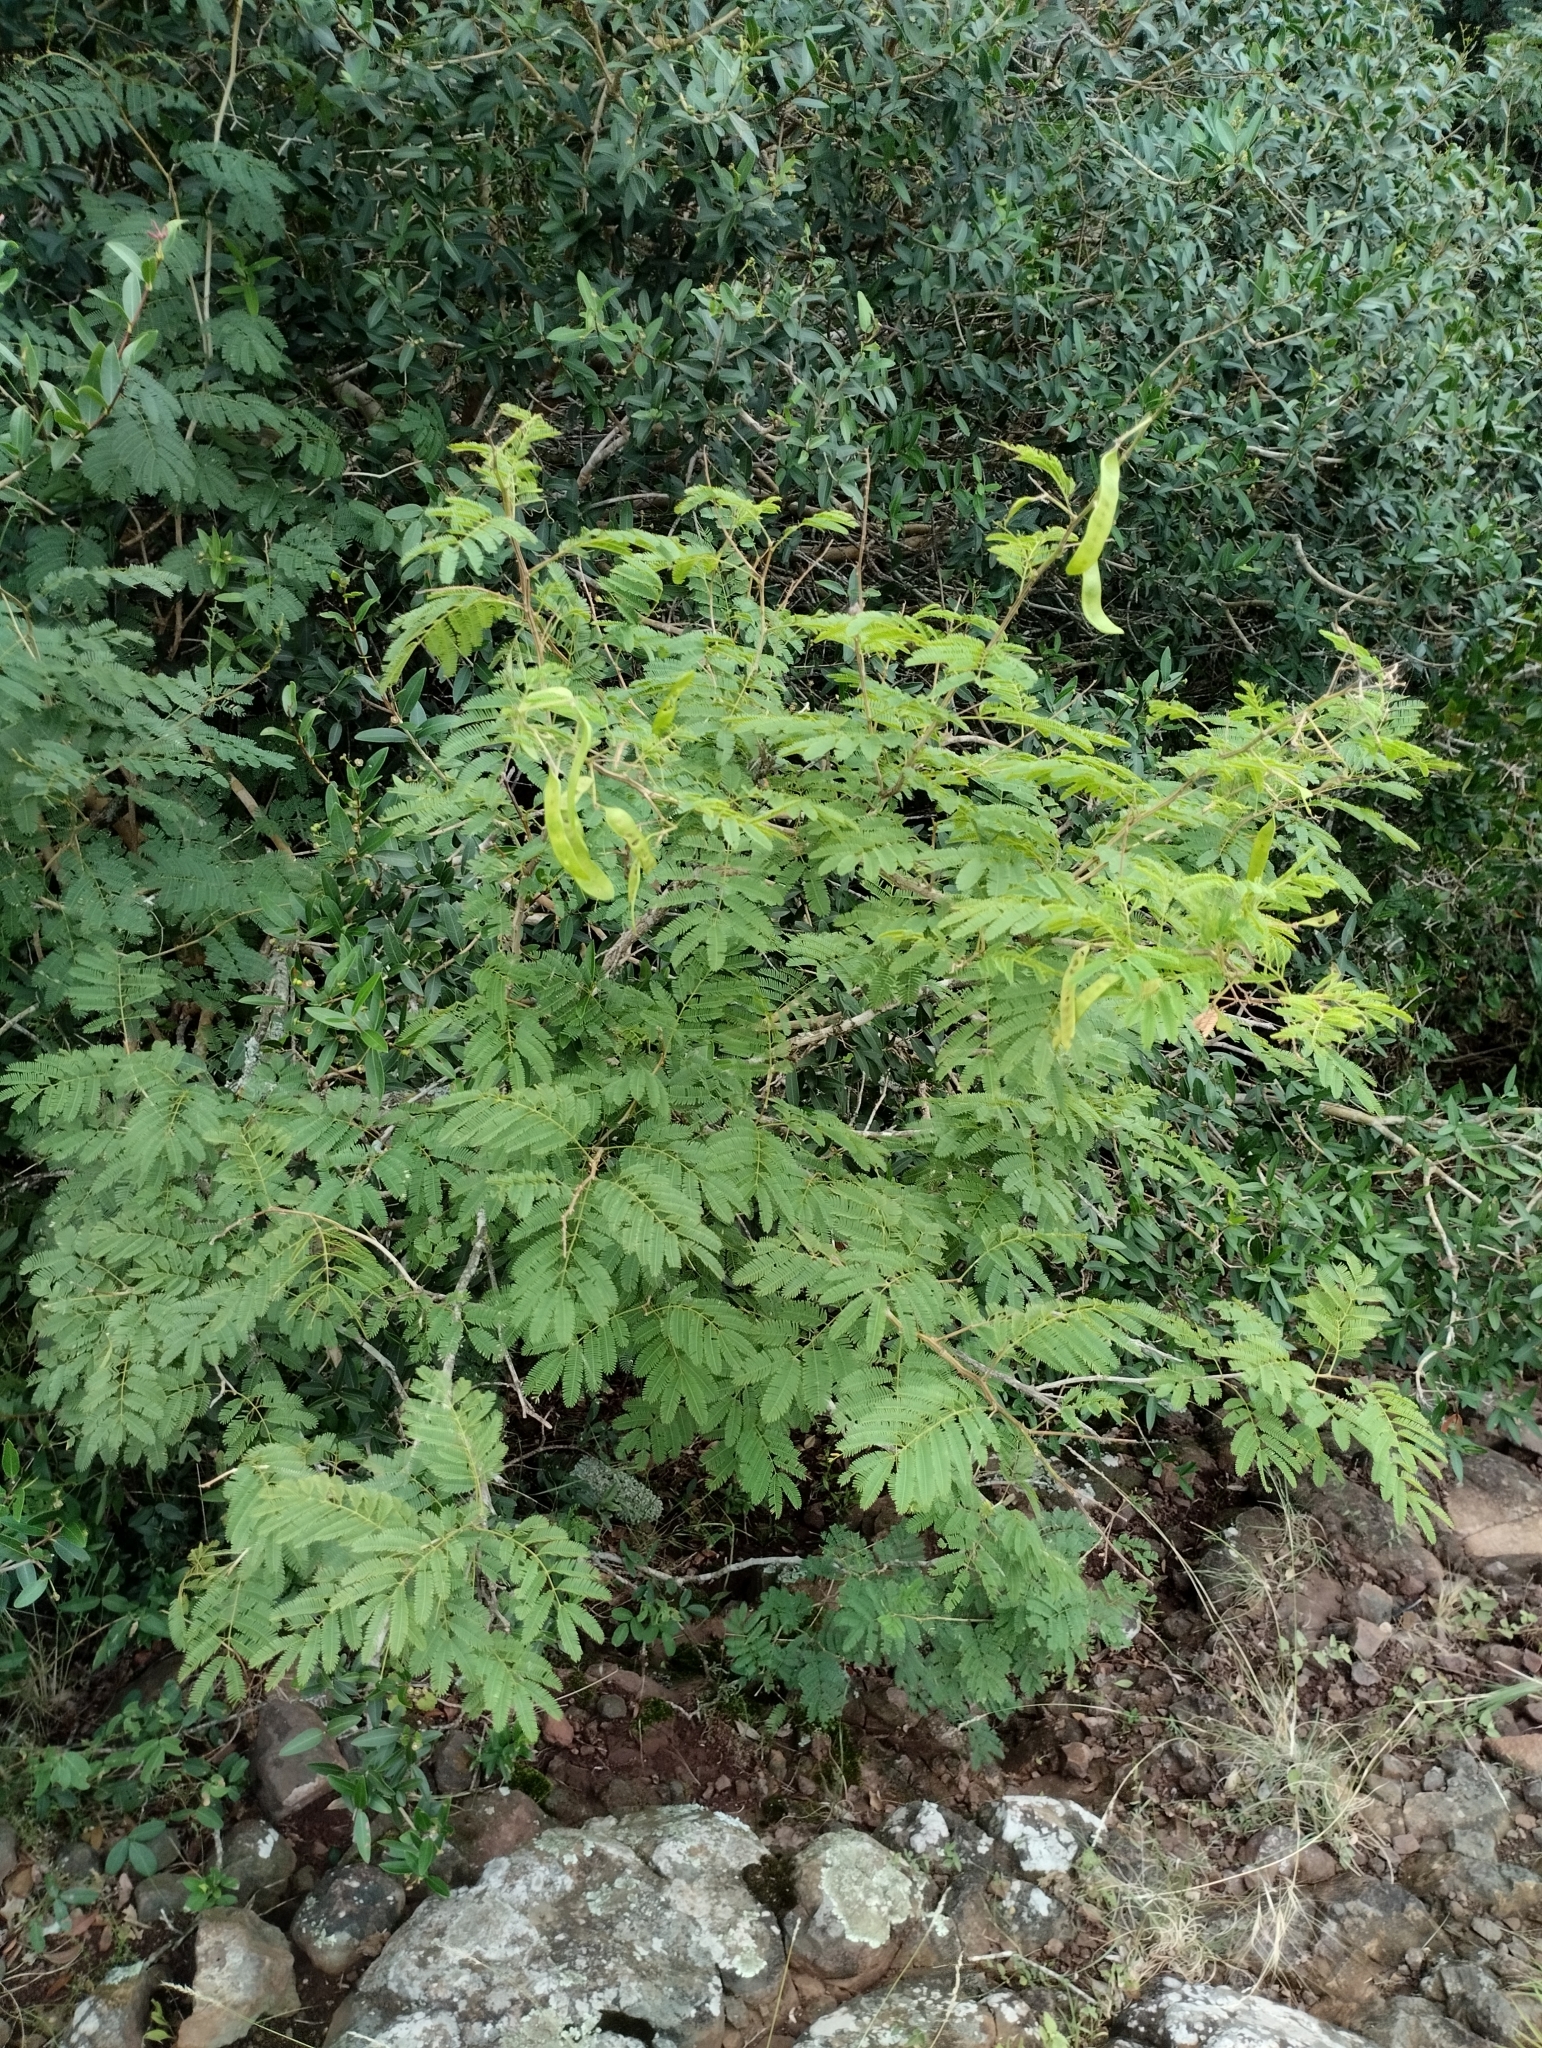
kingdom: Plantae
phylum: Tracheophyta
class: Magnoliopsida
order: Fabales
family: Fabaceae
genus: Senegalia
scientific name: Senegalia bonariensis
